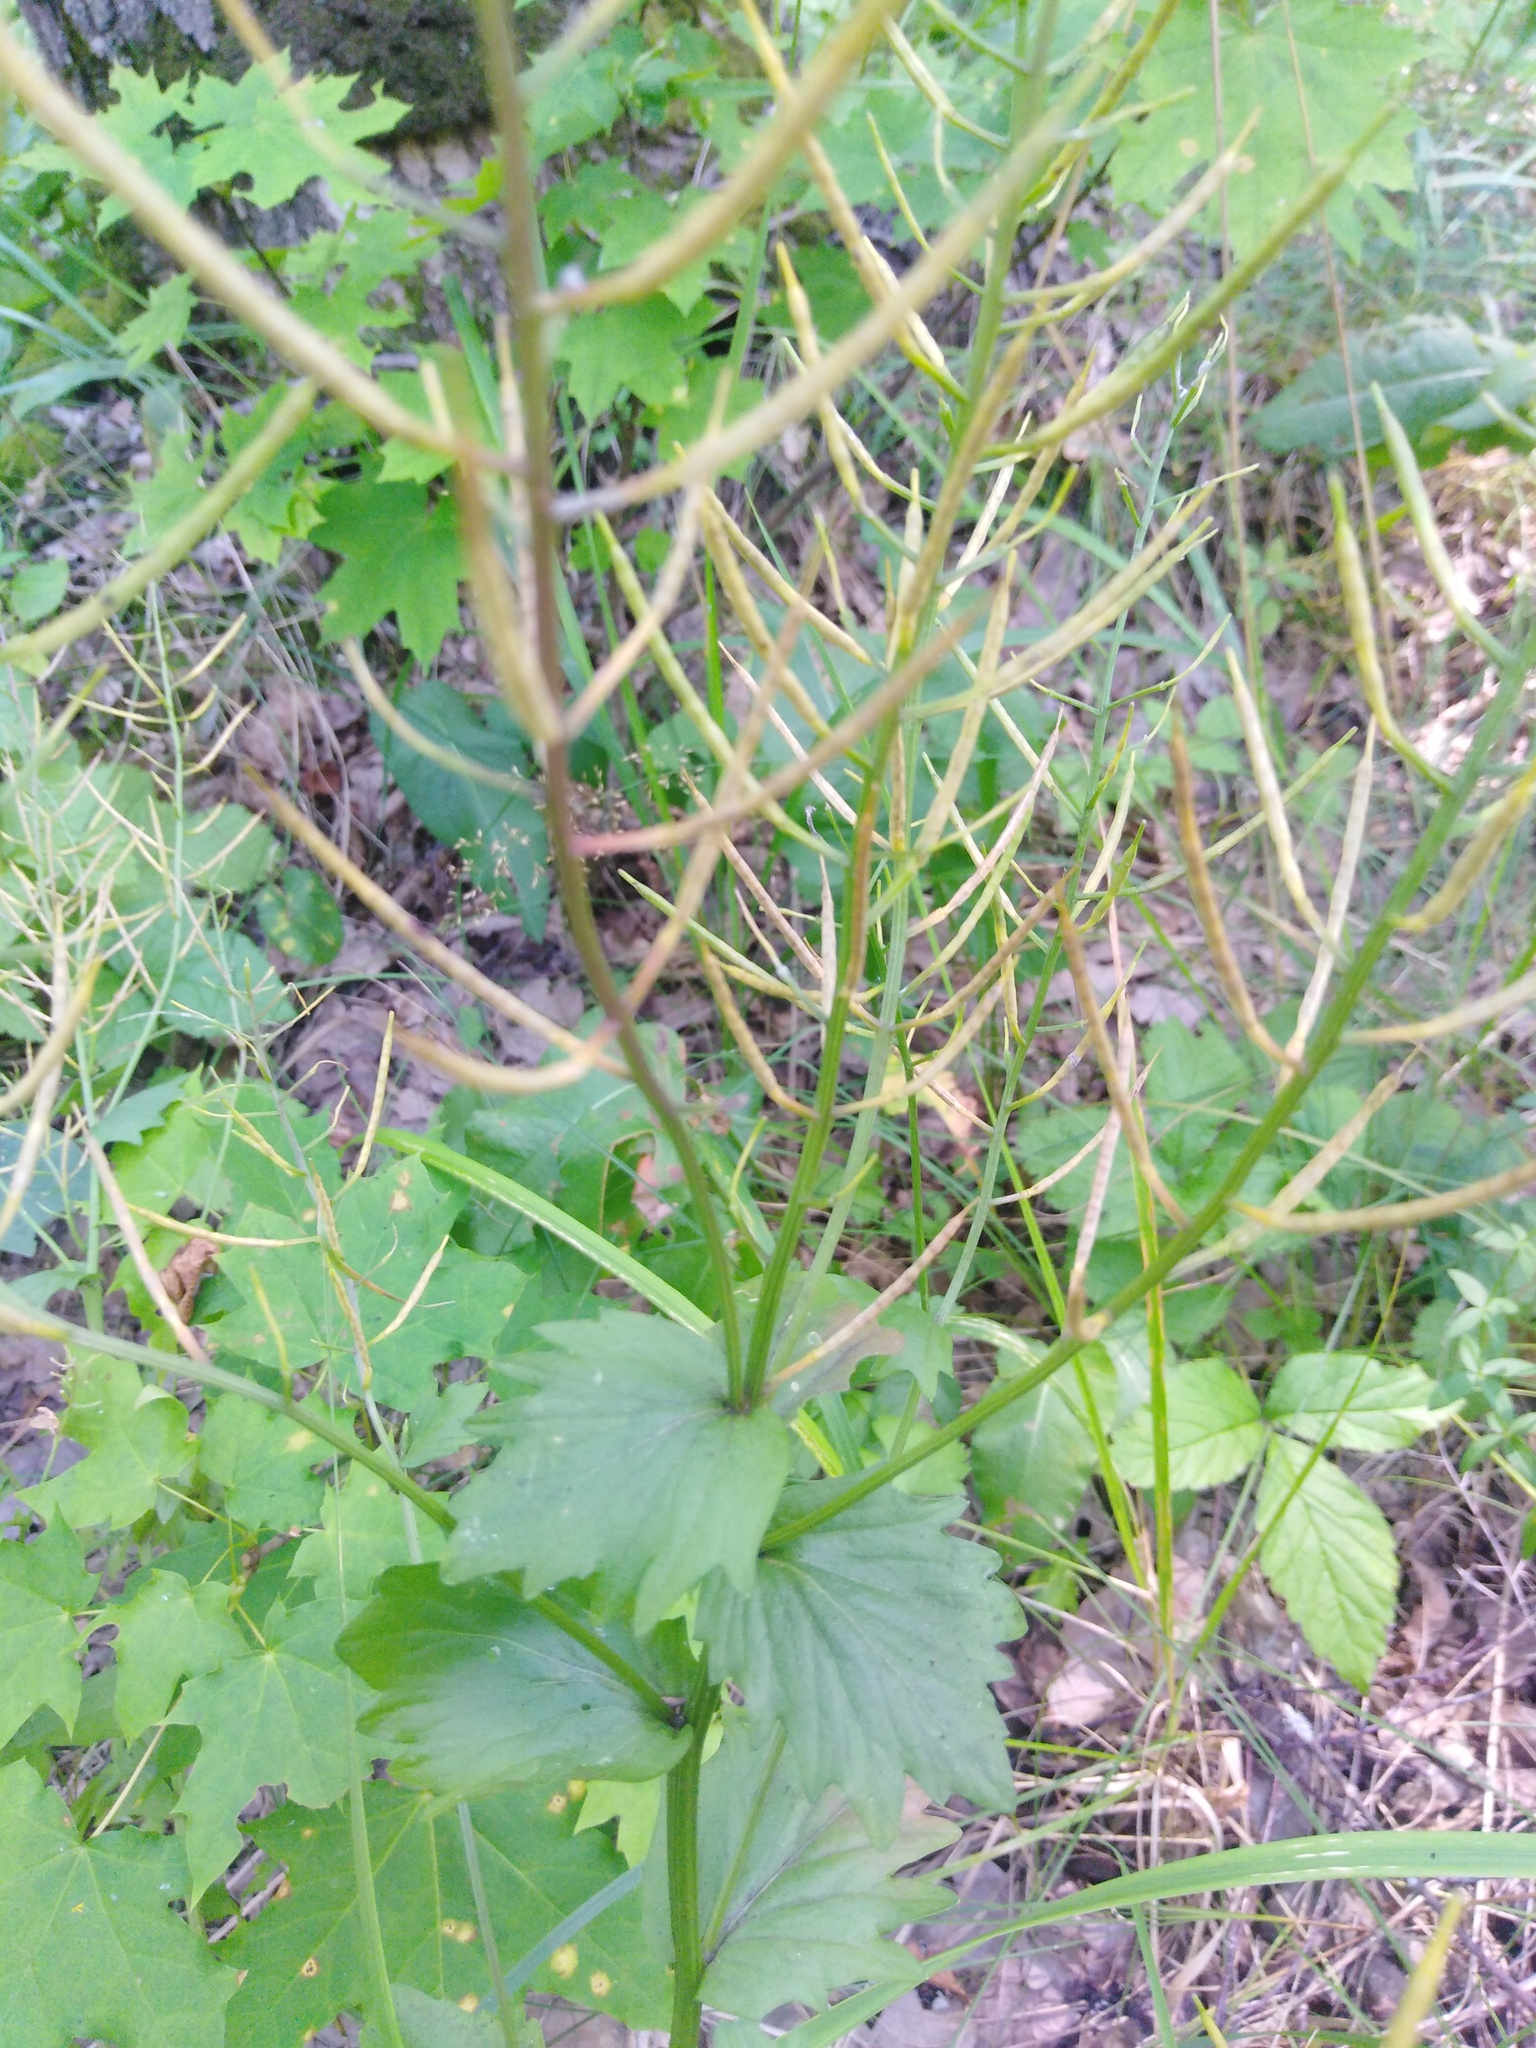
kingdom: Plantae
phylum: Tracheophyta
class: Magnoliopsida
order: Brassicales
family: Brassicaceae
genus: Barbarea
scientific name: Barbarea vulgaris
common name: Cressy-greens
